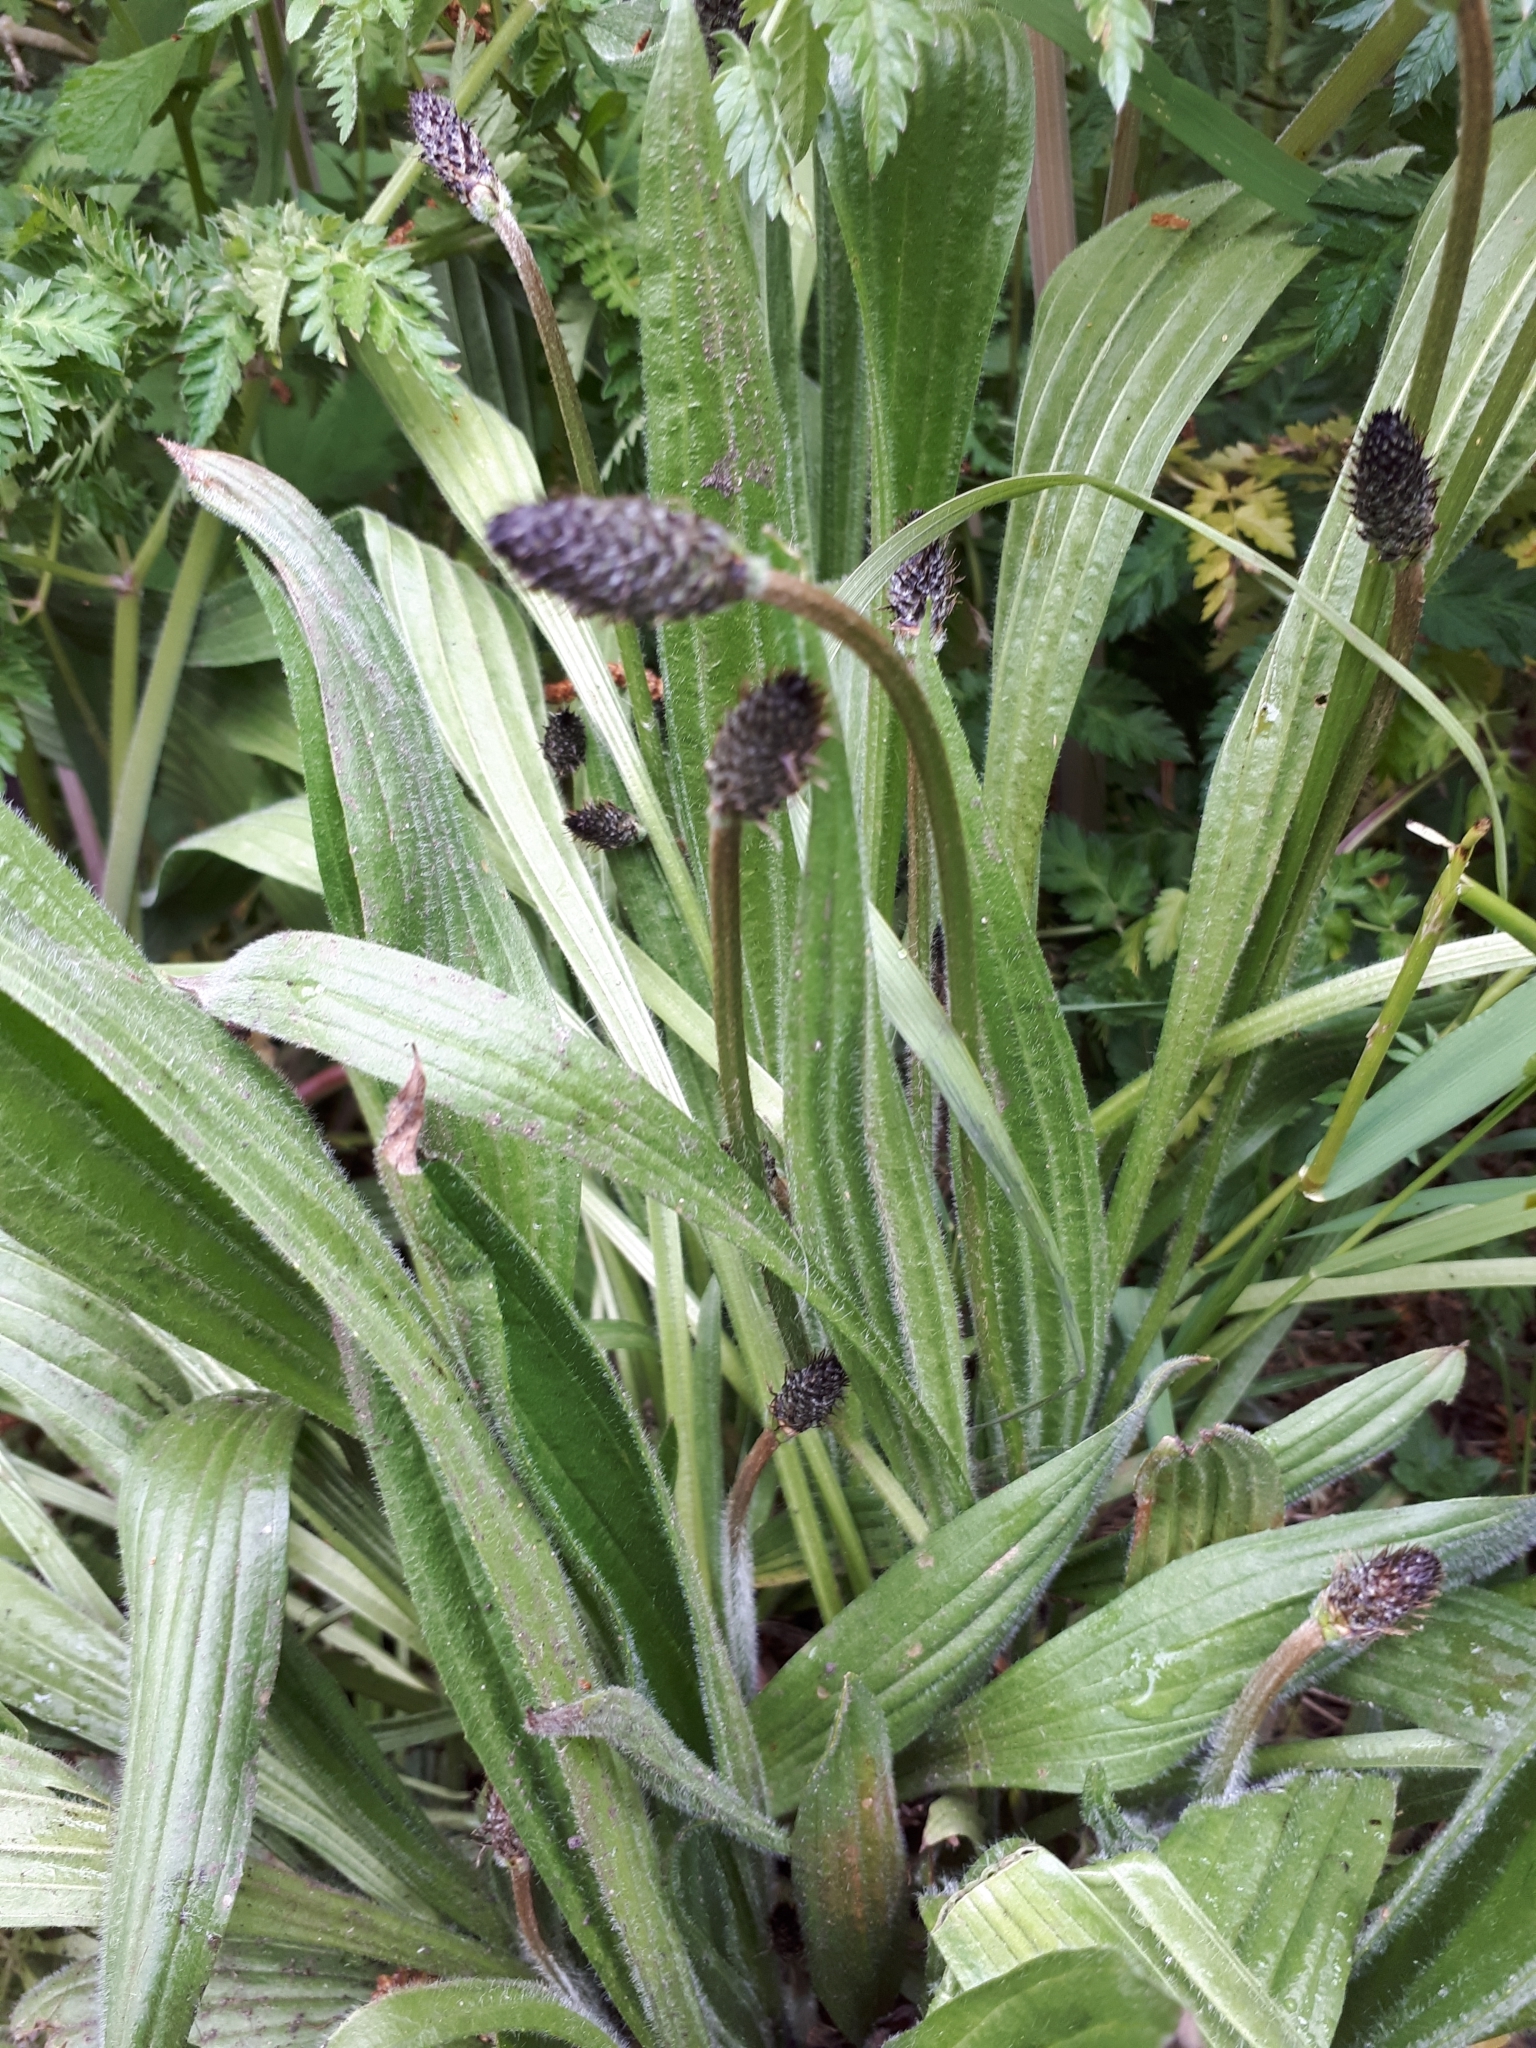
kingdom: Plantae
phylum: Tracheophyta
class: Magnoliopsida
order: Lamiales
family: Plantaginaceae
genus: Plantago
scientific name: Plantago lanceolata
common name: Ribwort plantain
